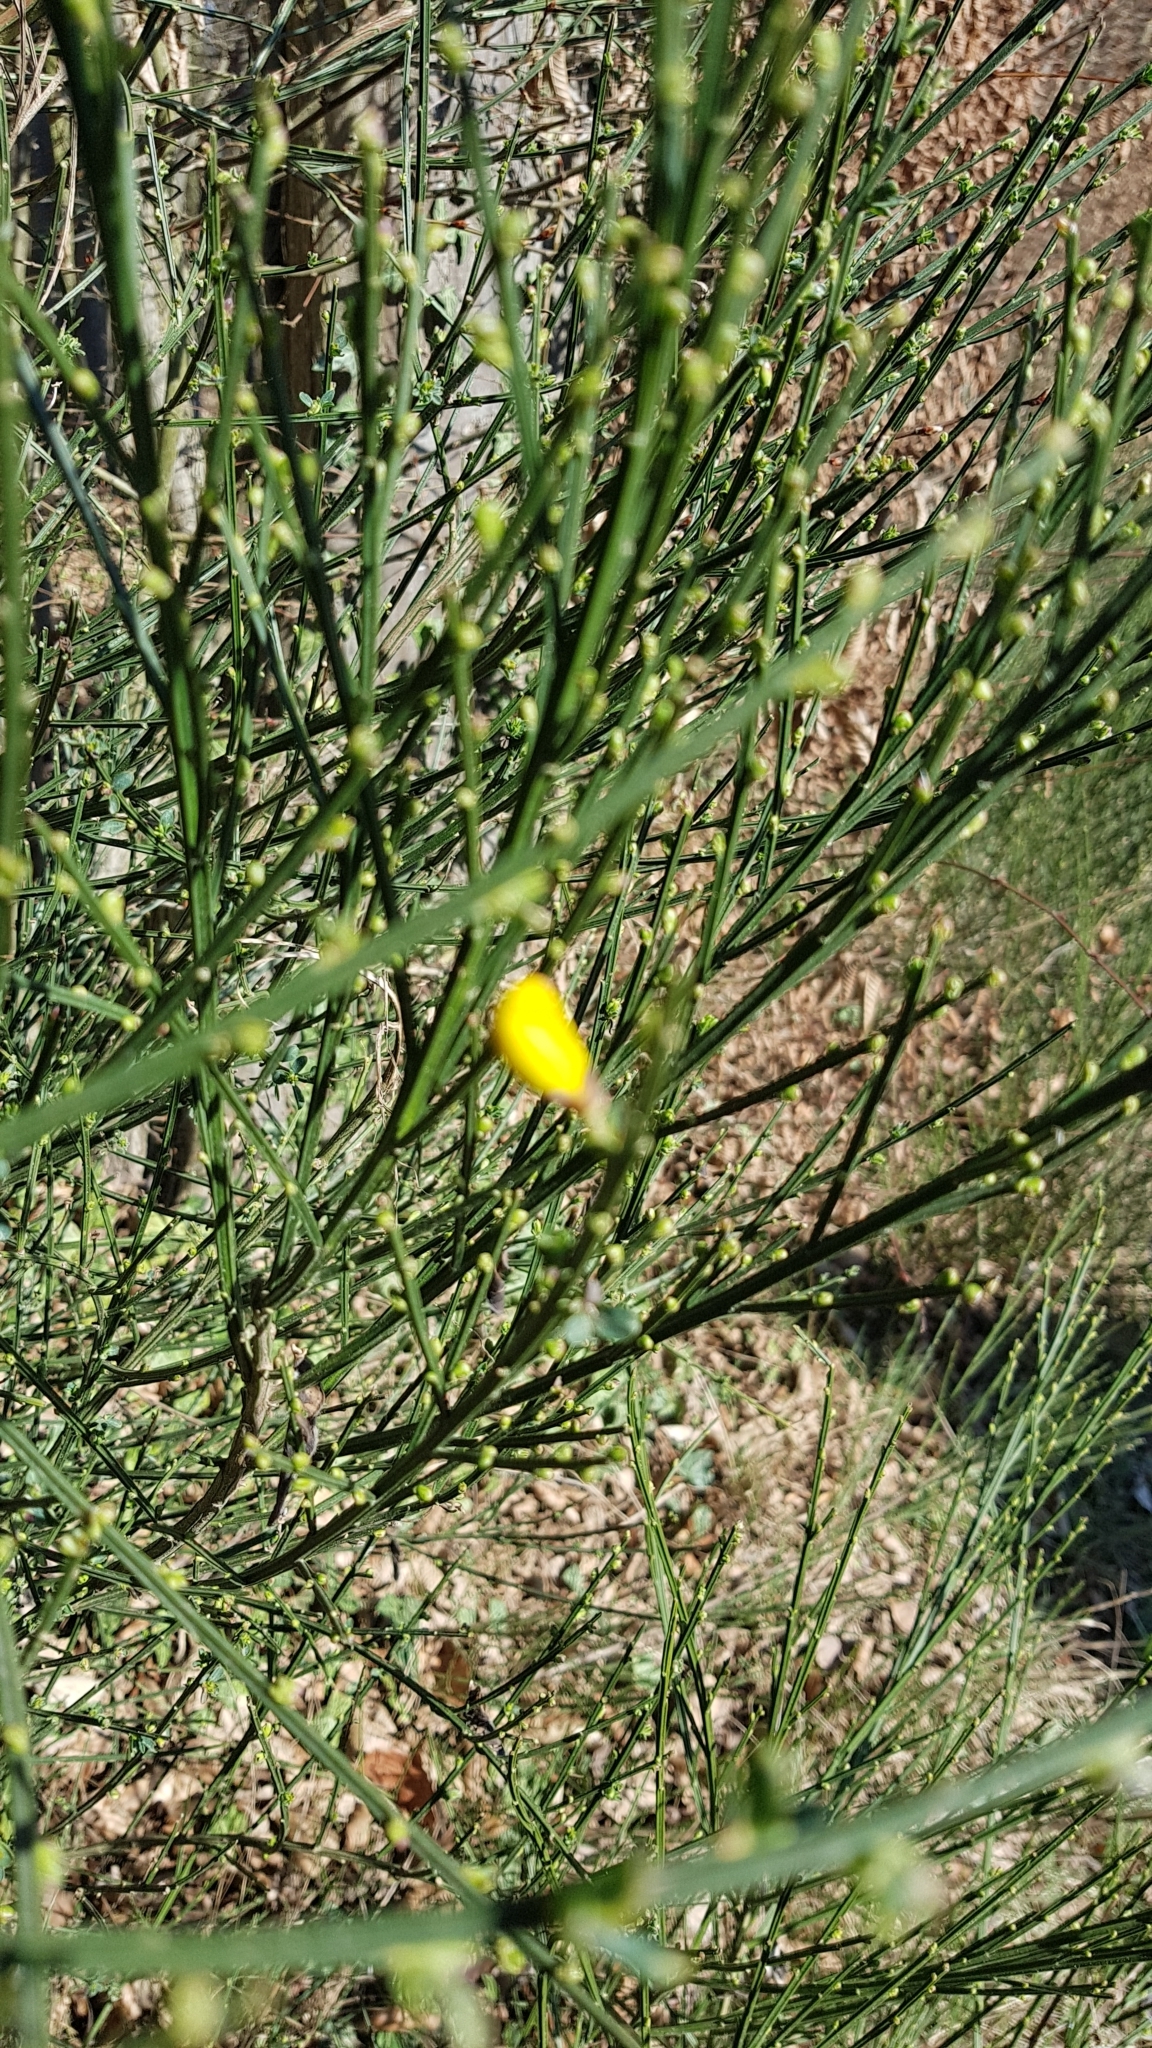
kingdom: Plantae
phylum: Tracheophyta
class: Magnoliopsida
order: Fabales
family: Fabaceae
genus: Cytisus
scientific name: Cytisus scoparius
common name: Scotch broom
